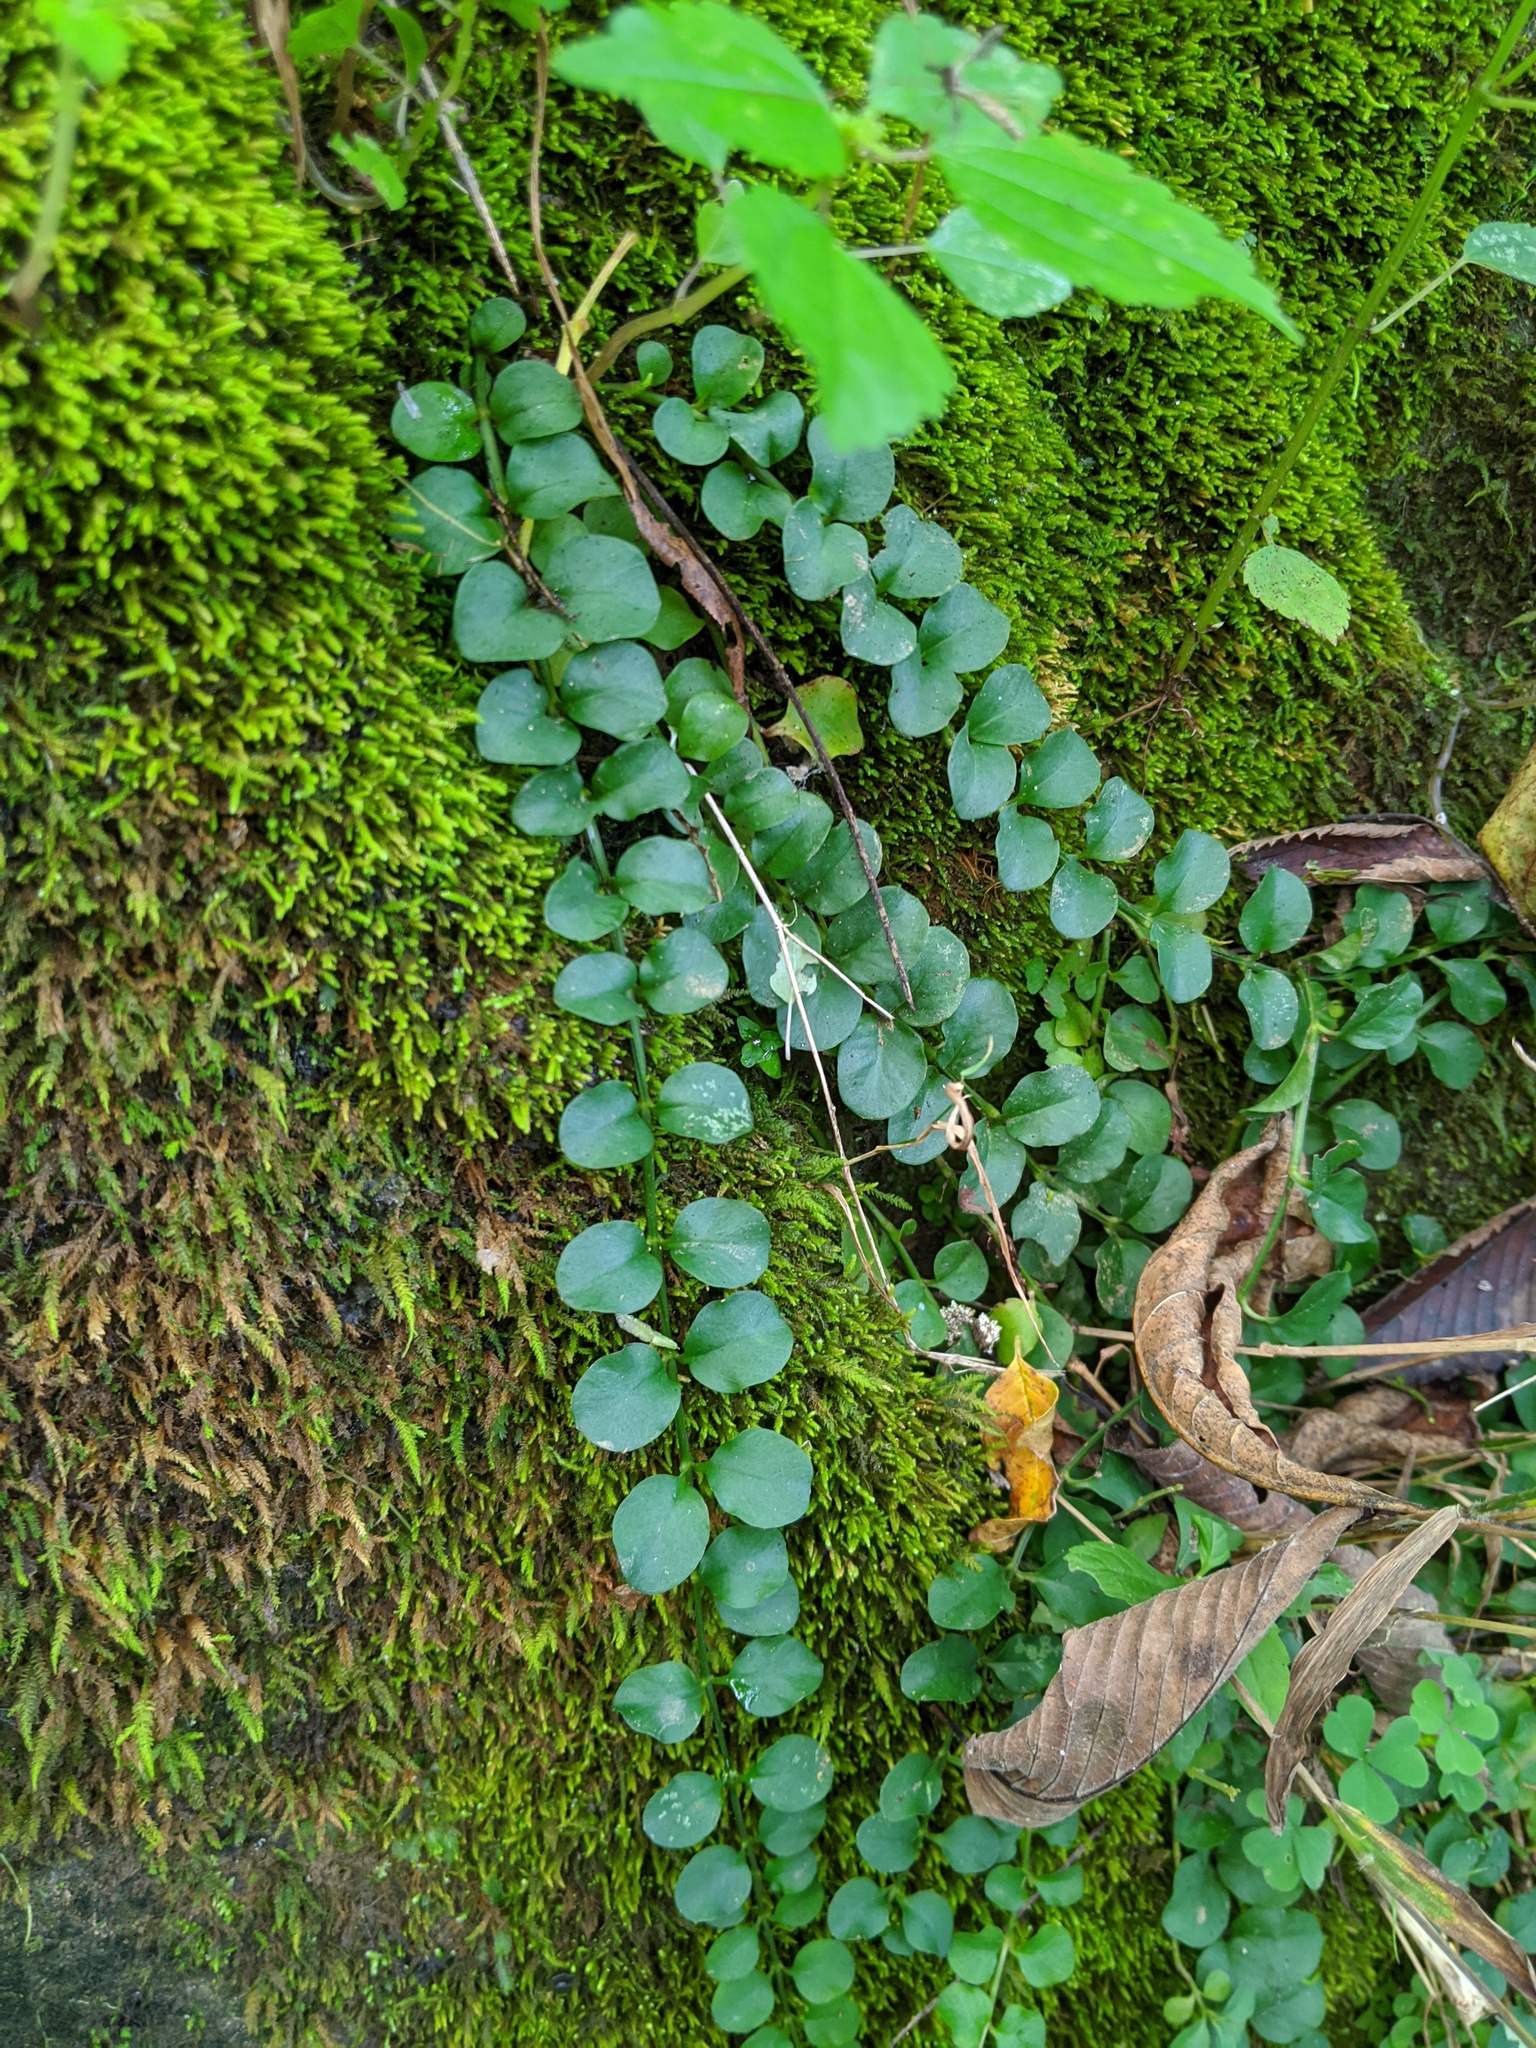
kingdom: Plantae
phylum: Tracheophyta
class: Magnoliopsida
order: Ericales
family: Primulaceae
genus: Lysimachia
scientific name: Lysimachia nummularia
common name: Moneywort
